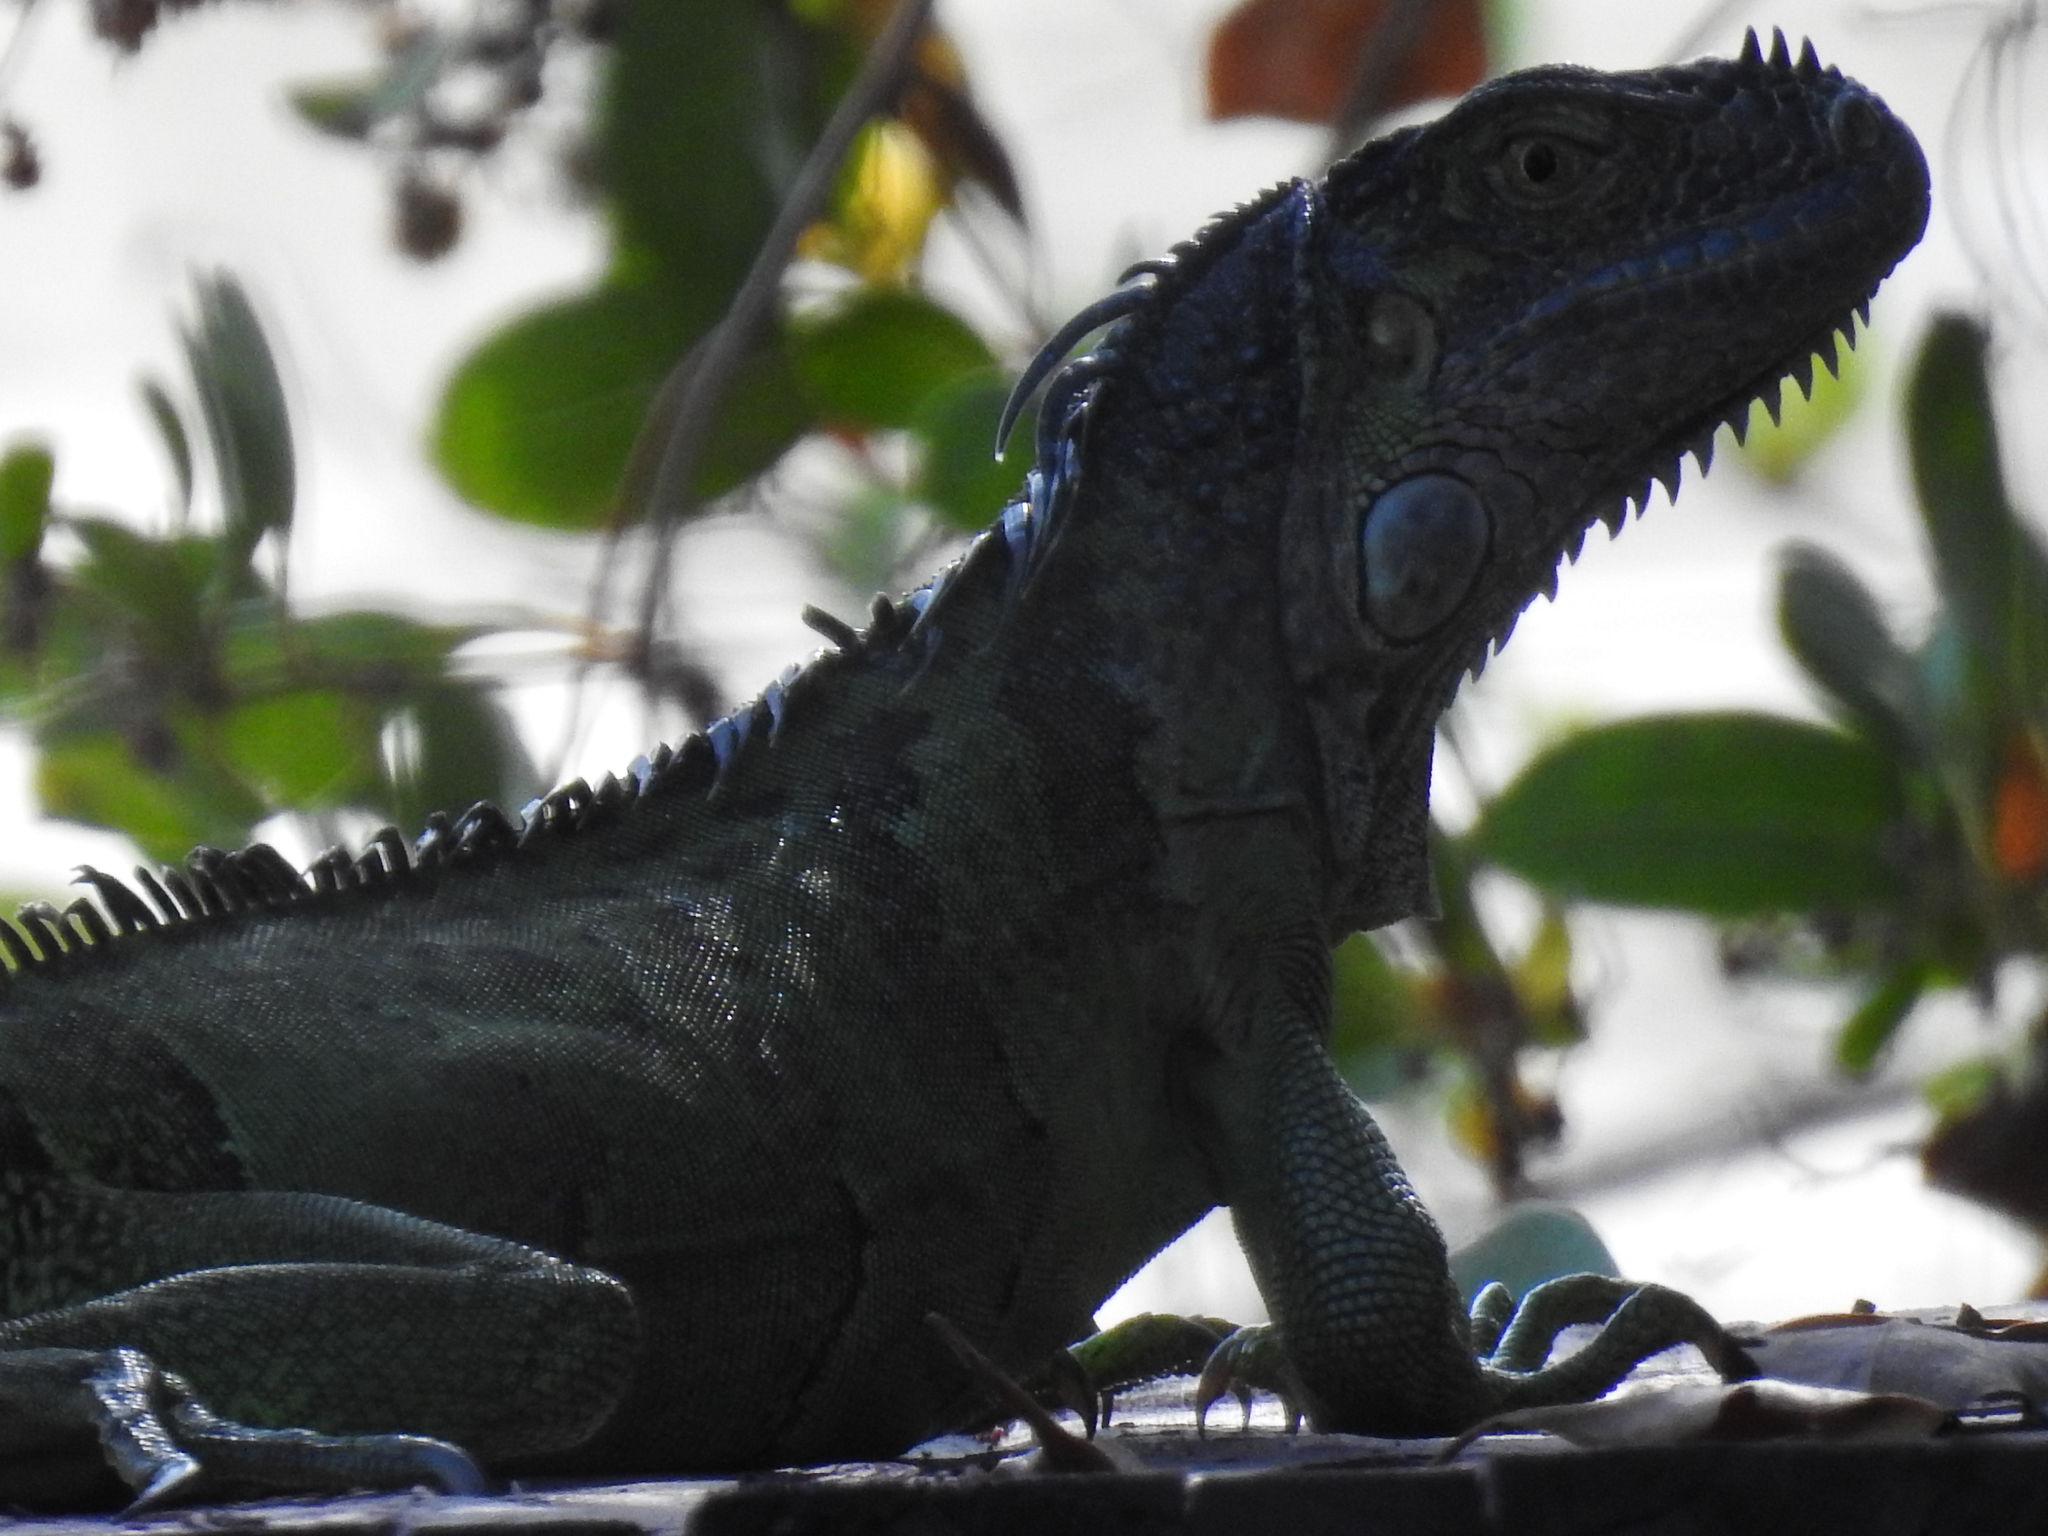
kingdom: Animalia
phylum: Chordata
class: Squamata
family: Iguanidae
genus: Iguana
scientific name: Iguana iguana
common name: Green iguana
